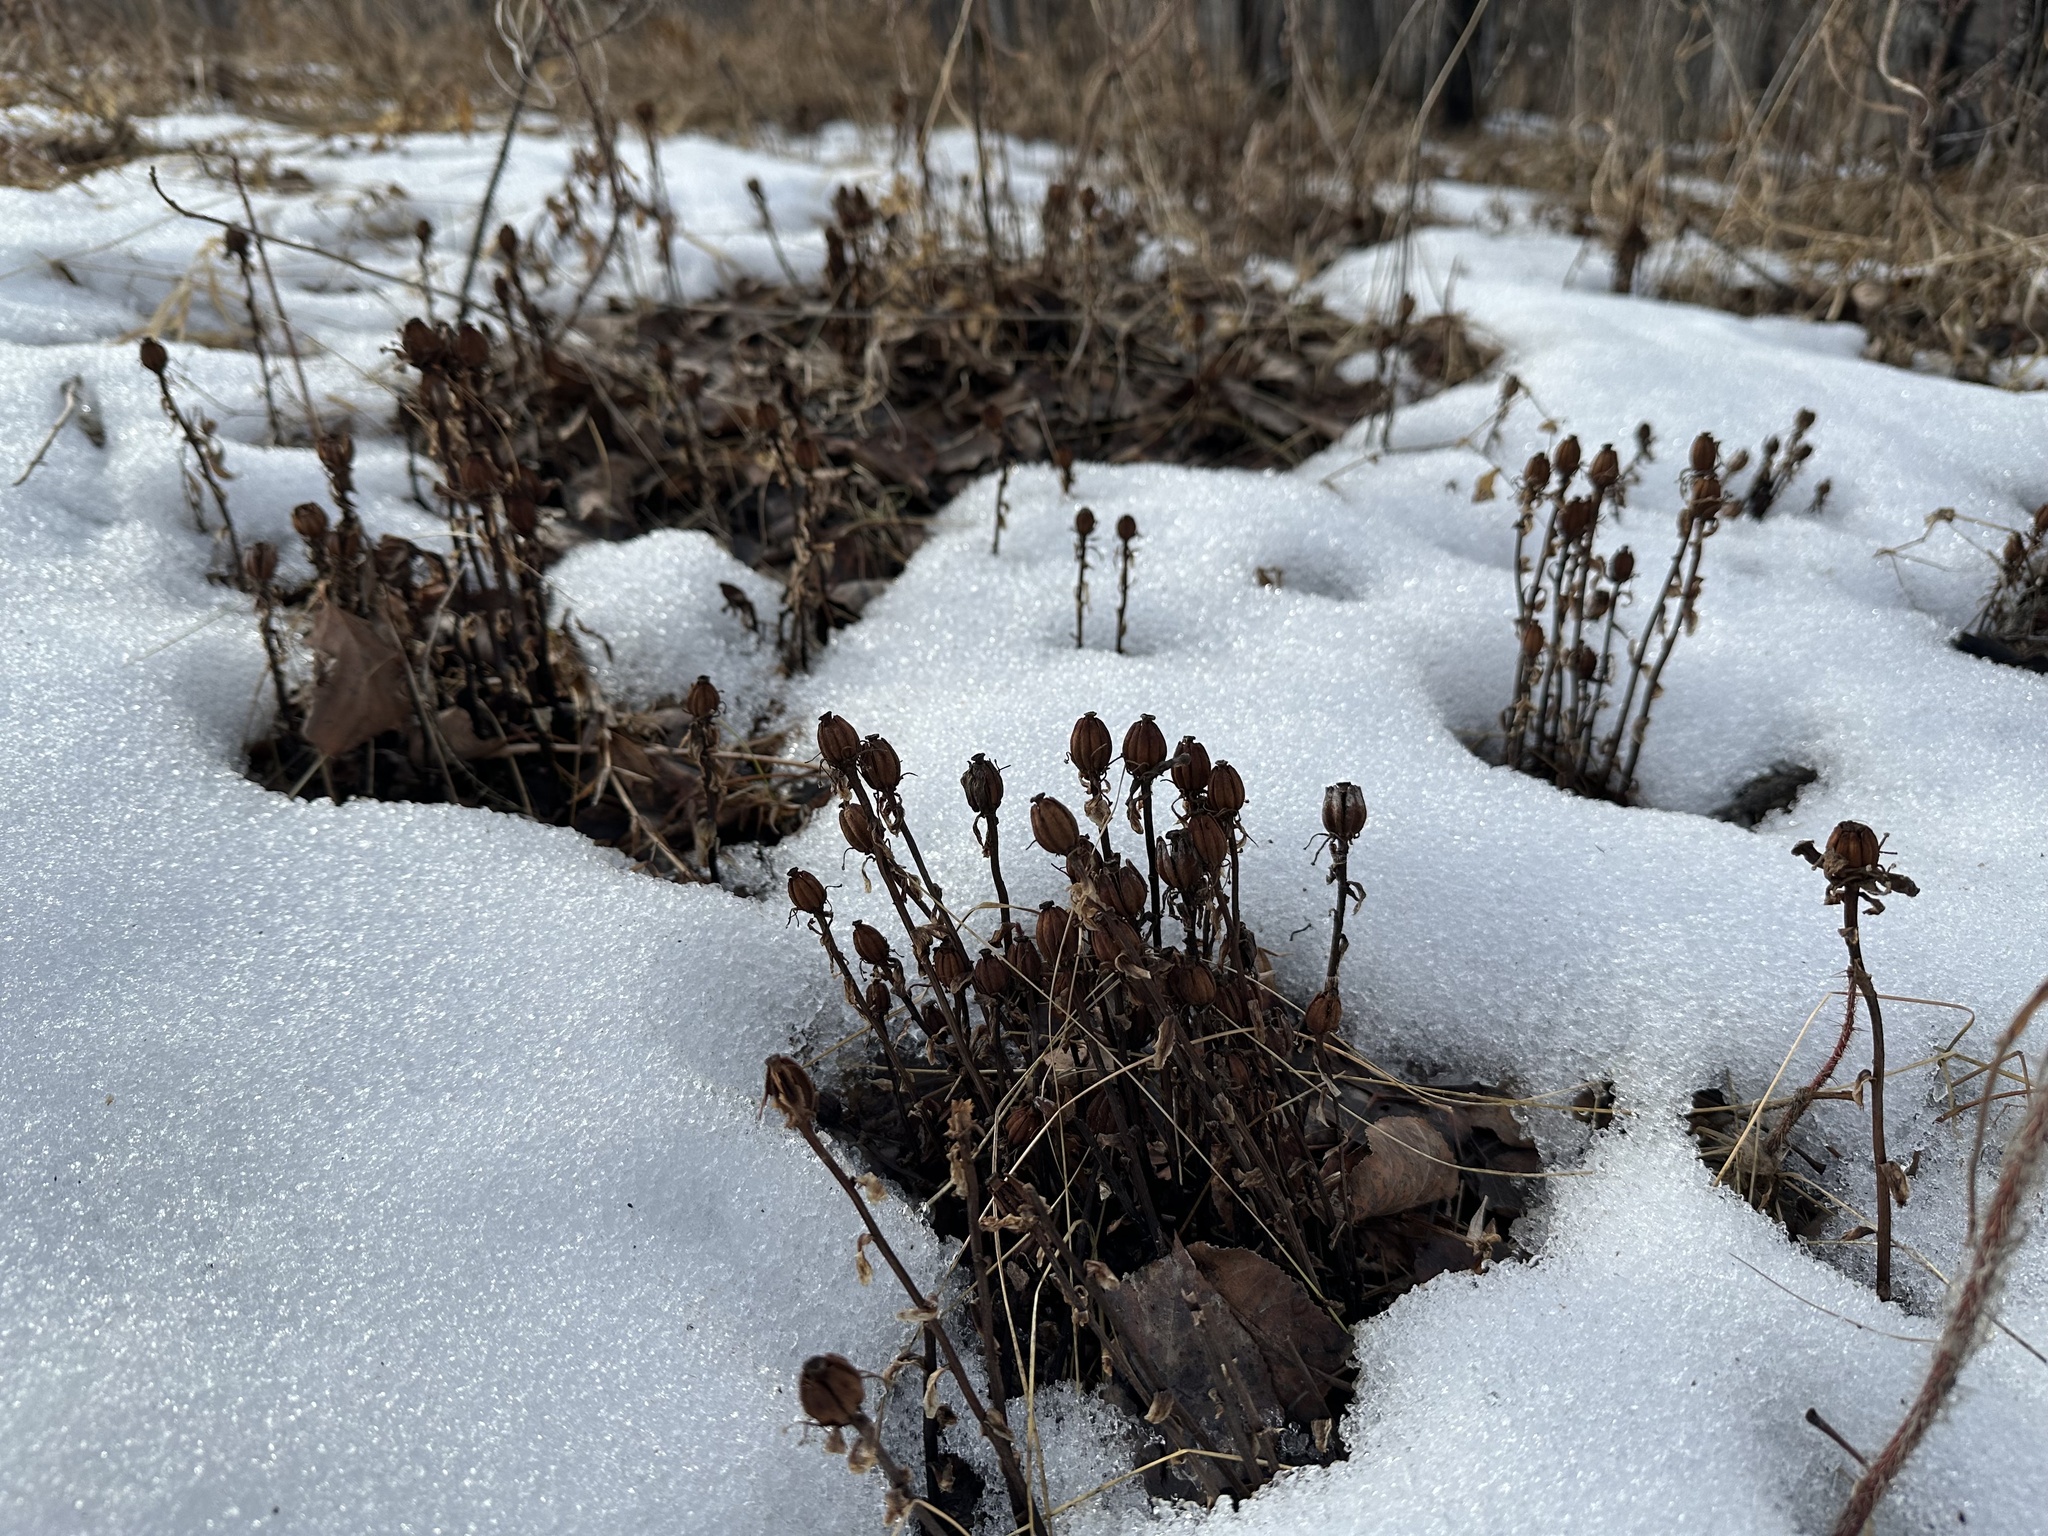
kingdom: Plantae
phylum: Tracheophyta
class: Magnoliopsida
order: Ericales
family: Ericaceae
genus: Monotropa
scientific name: Monotropa uniflora
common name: Convulsion root
